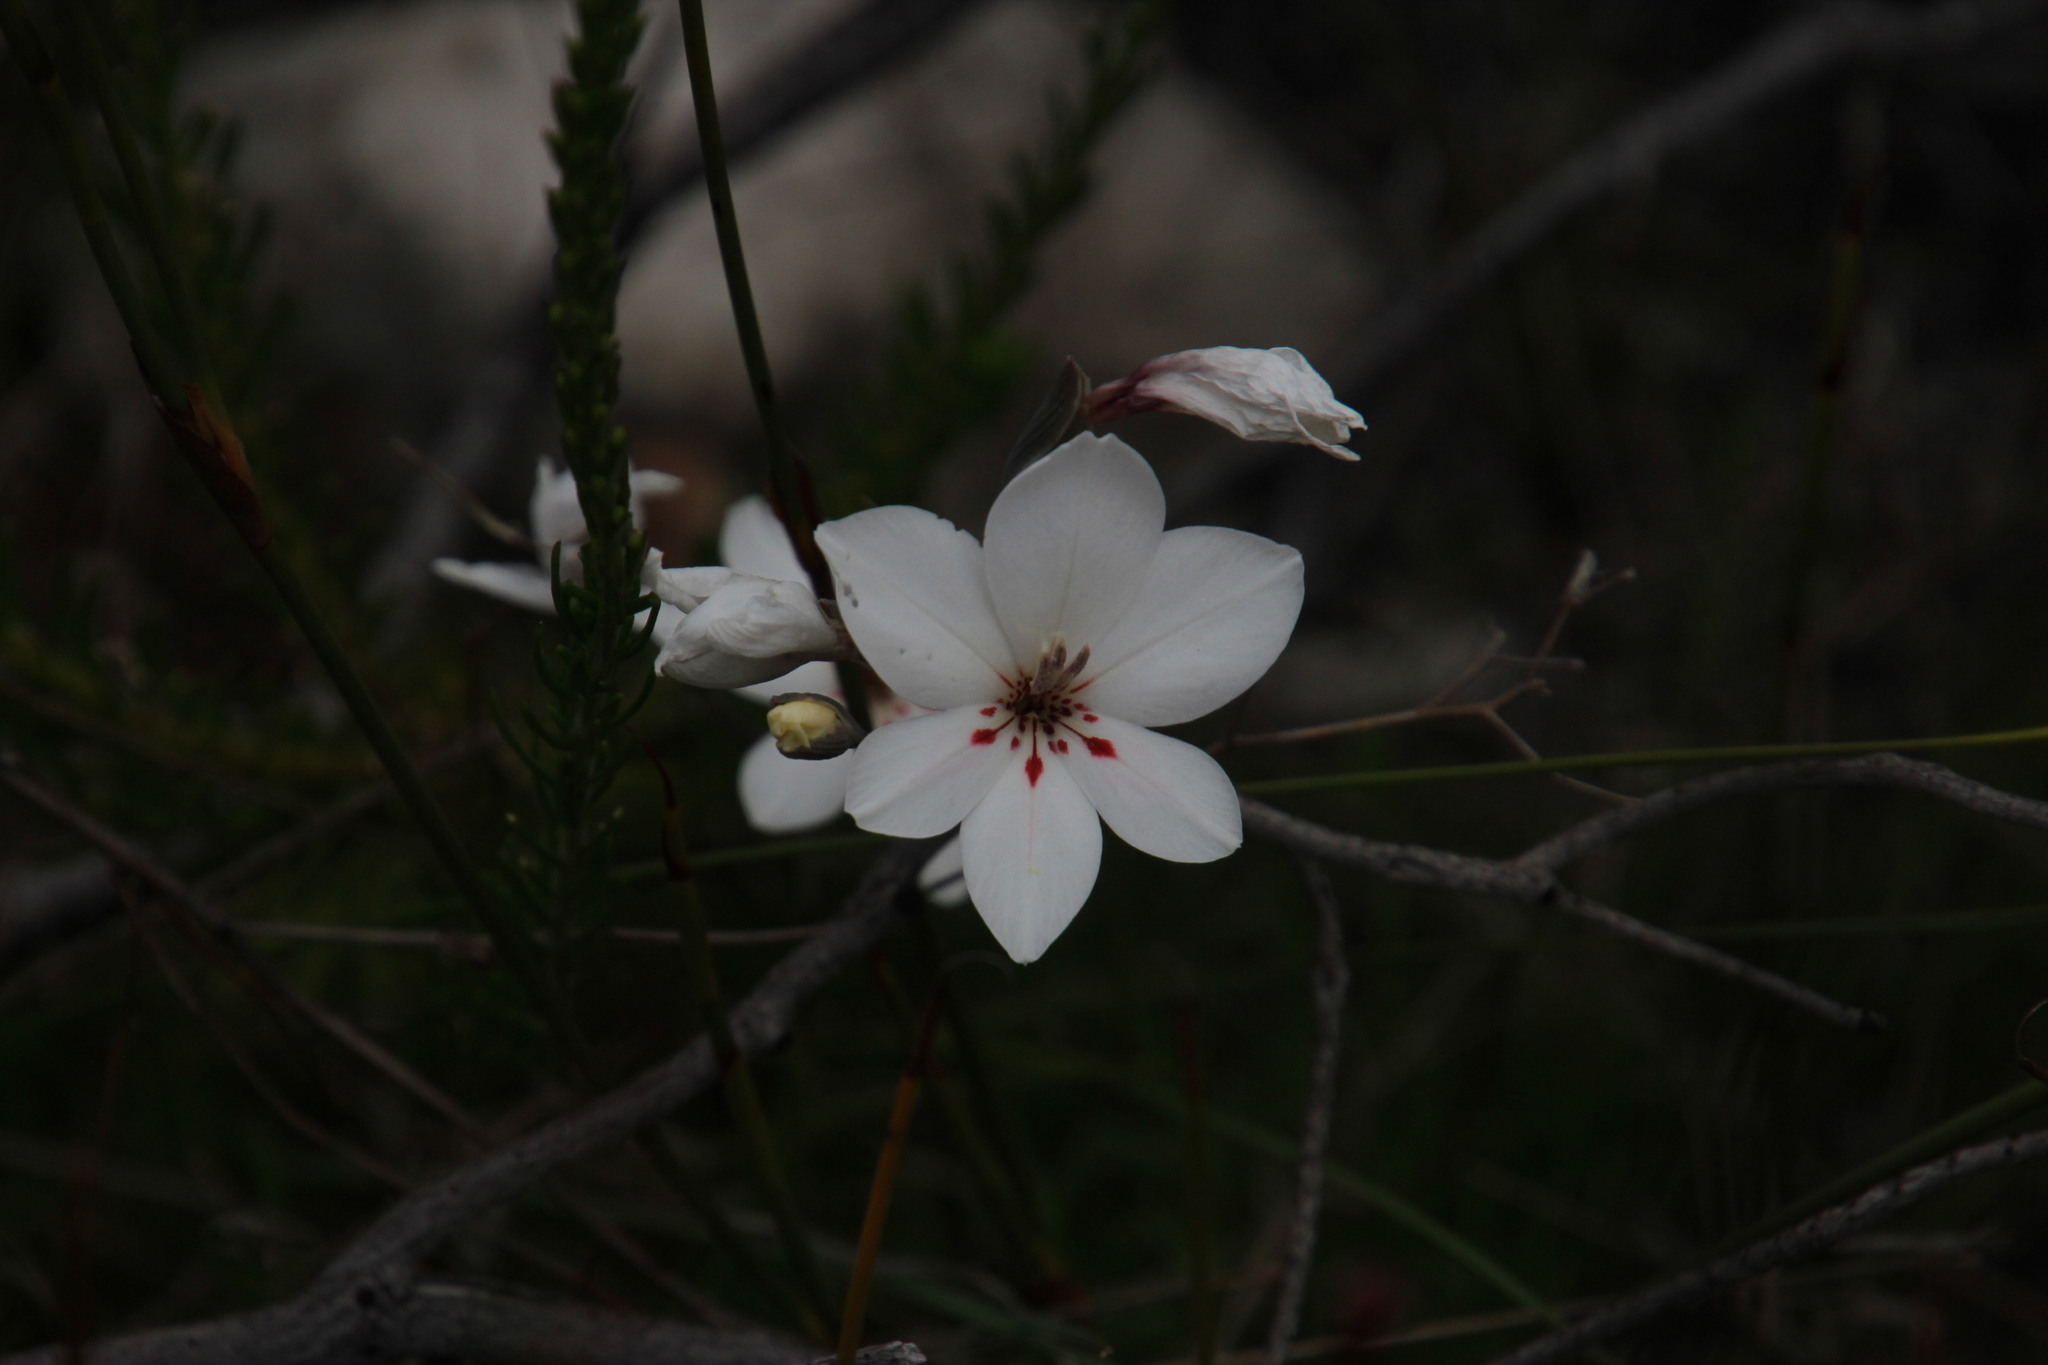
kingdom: Plantae
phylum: Tracheophyta
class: Liliopsida
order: Asparagales
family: Iridaceae
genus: Gladiolus
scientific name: Gladiolus debilis
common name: Painted-lady
